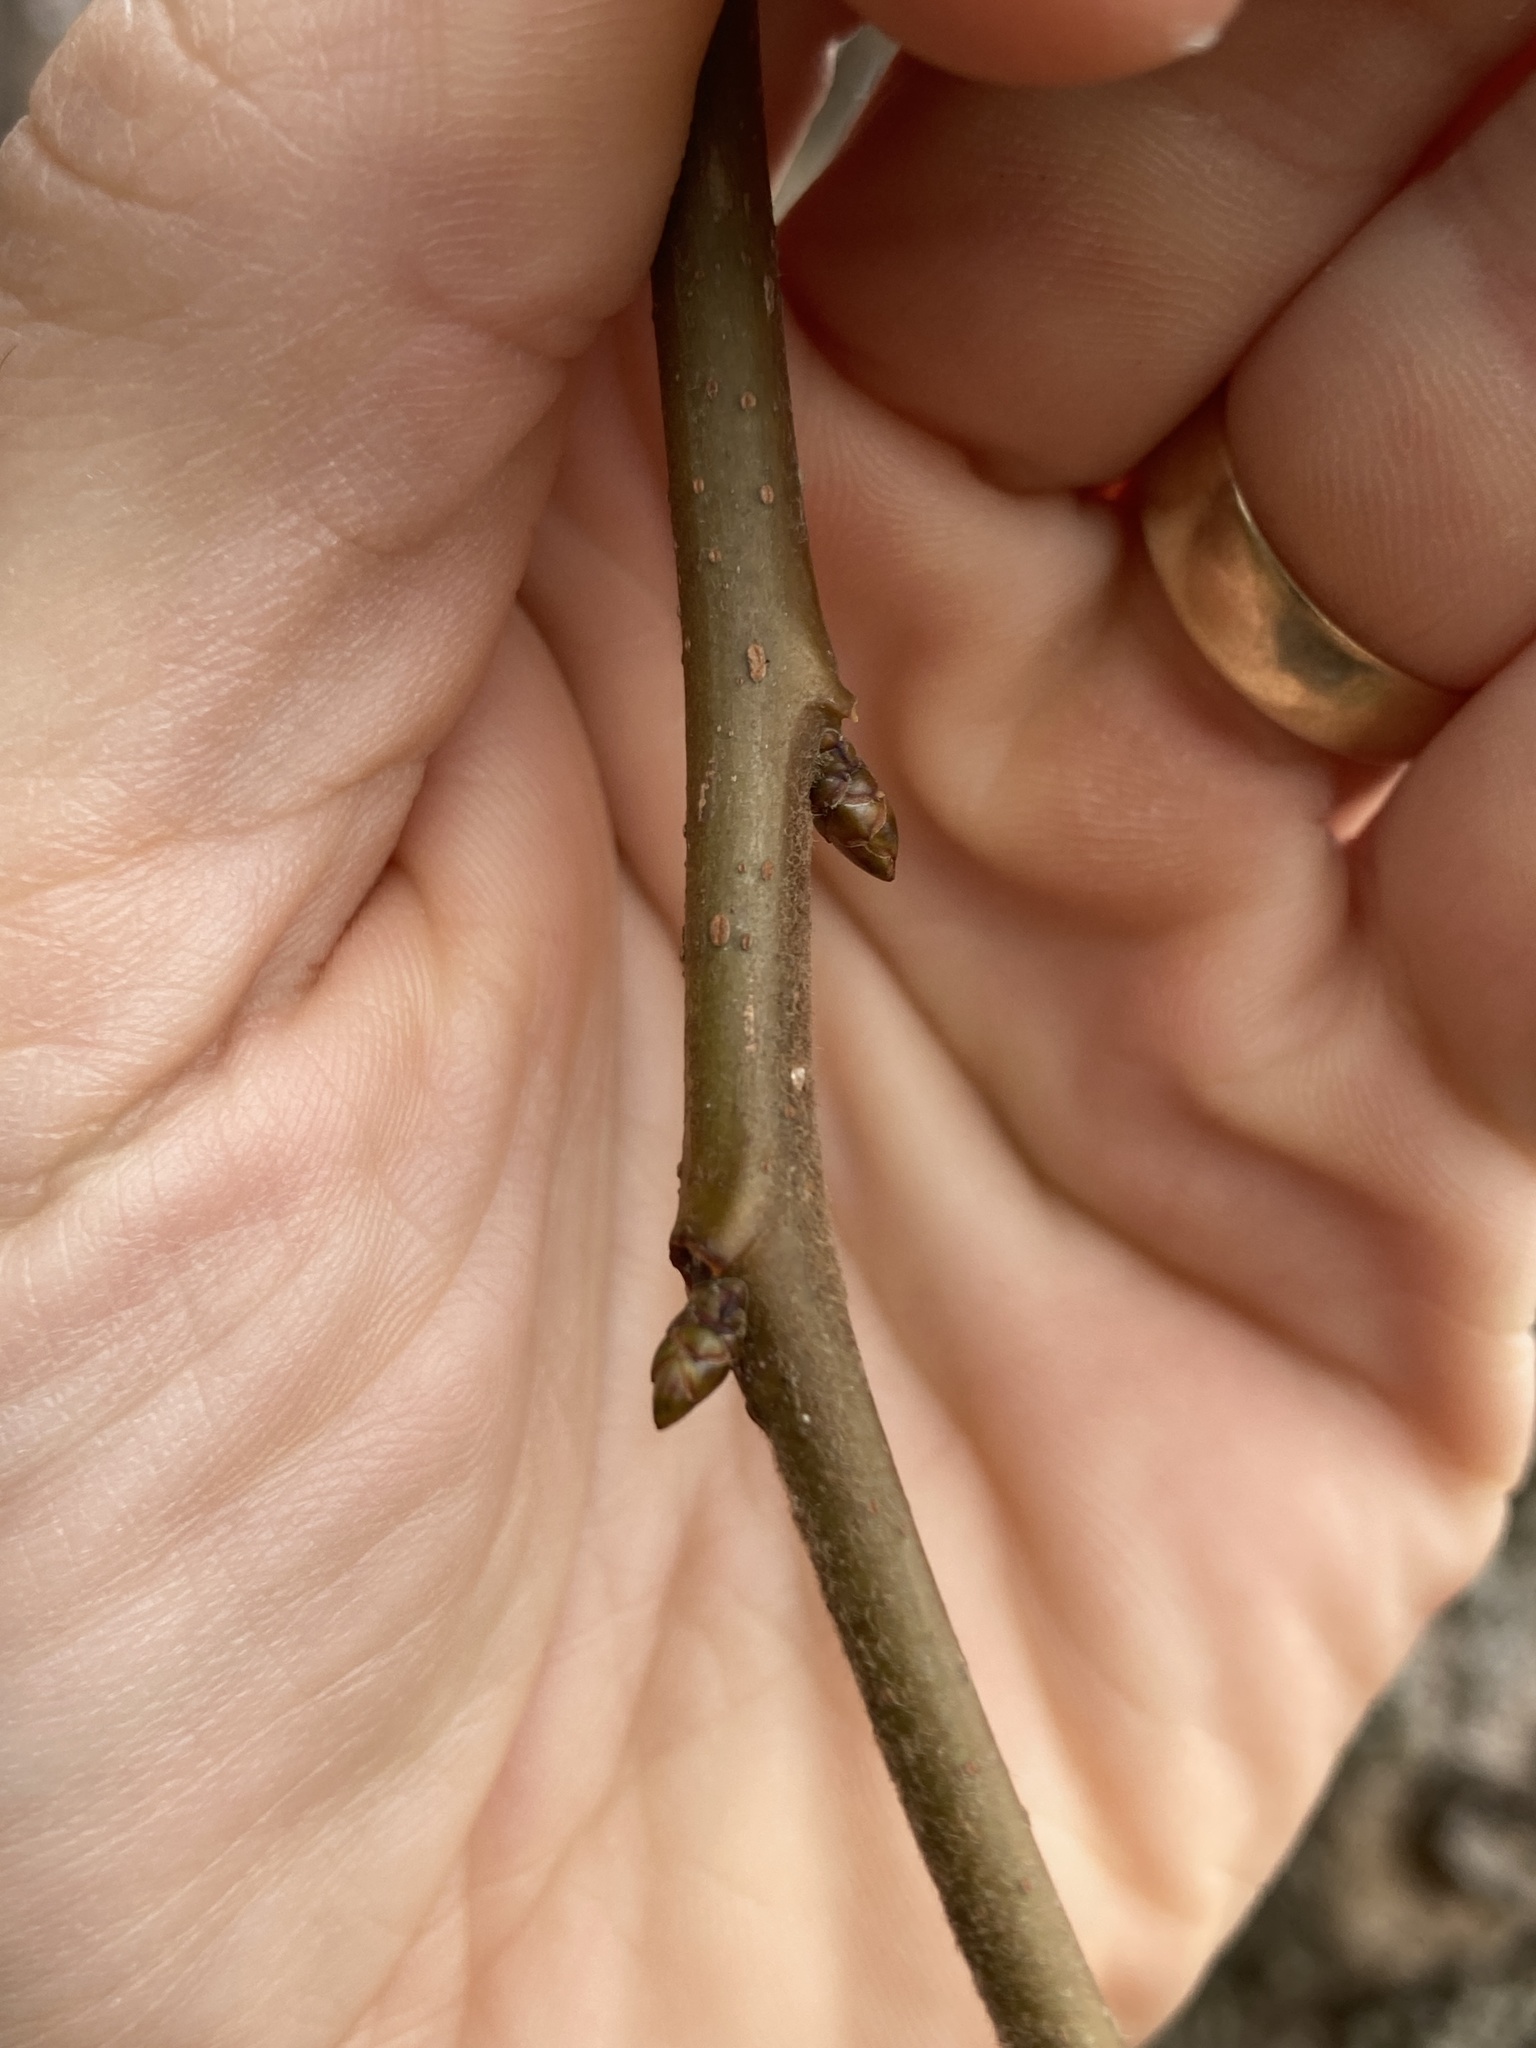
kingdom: Plantae
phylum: Tracheophyta
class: Magnoliopsida
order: Saxifragales
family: Altingiaceae
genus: Liquidambar
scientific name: Liquidambar styraciflua
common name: Sweet gum
